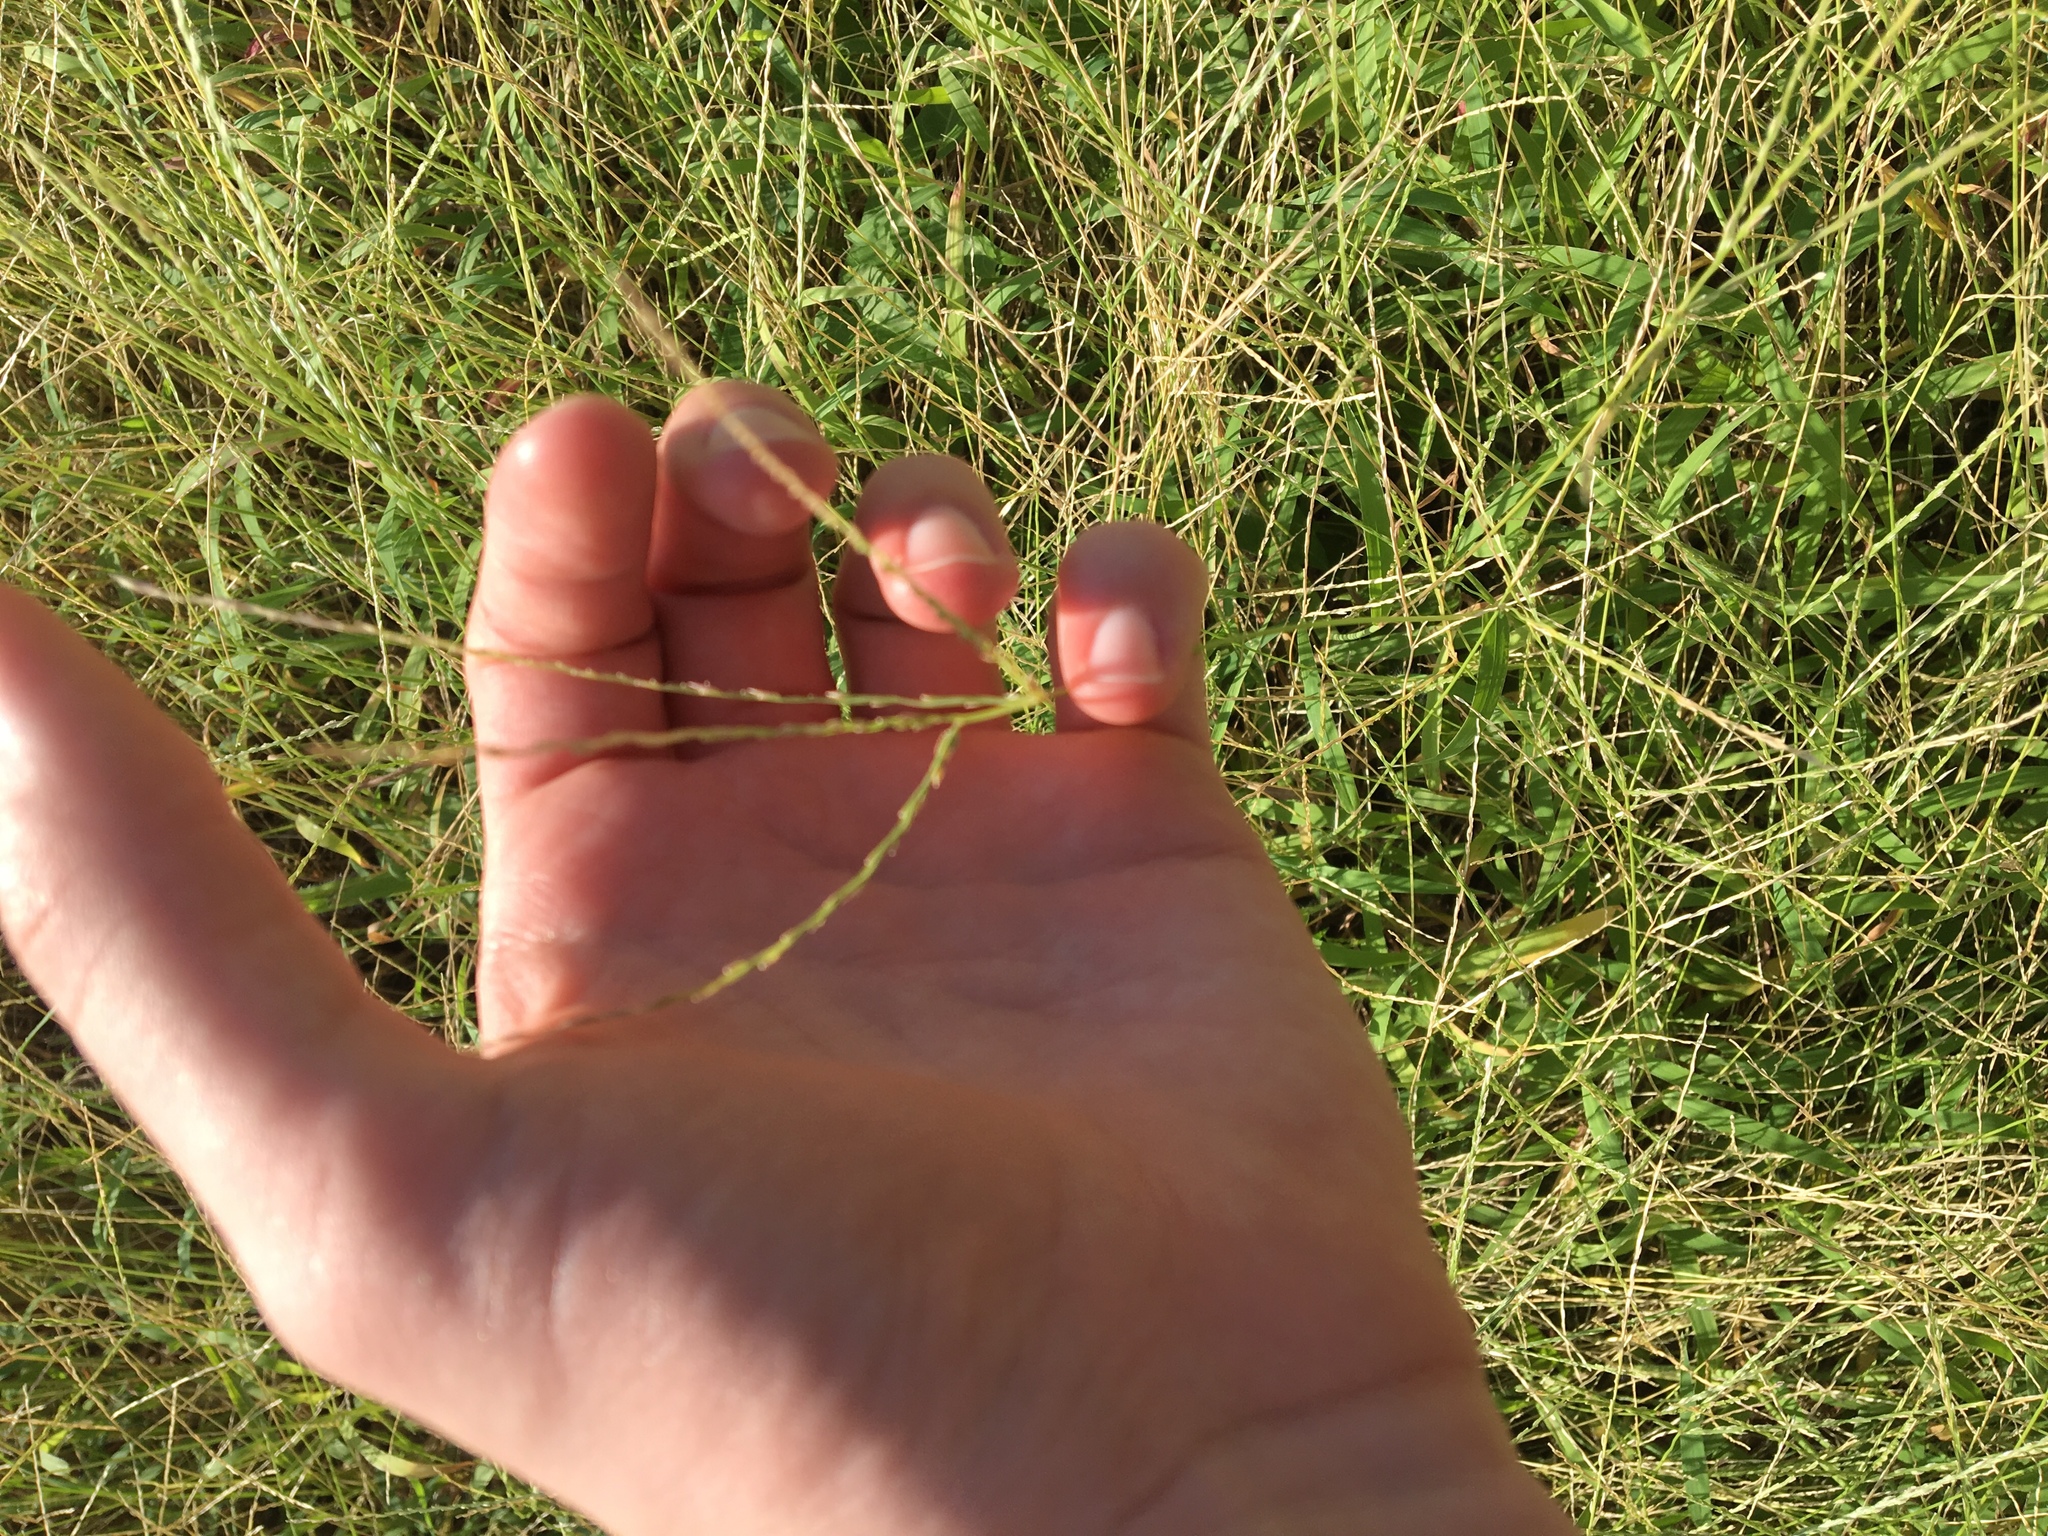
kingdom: Plantae
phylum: Tracheophyta
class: Liliopsida
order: Poales
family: Poaceae
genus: Cynodon
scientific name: Cynodon dactylon
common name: Bermuda grass
